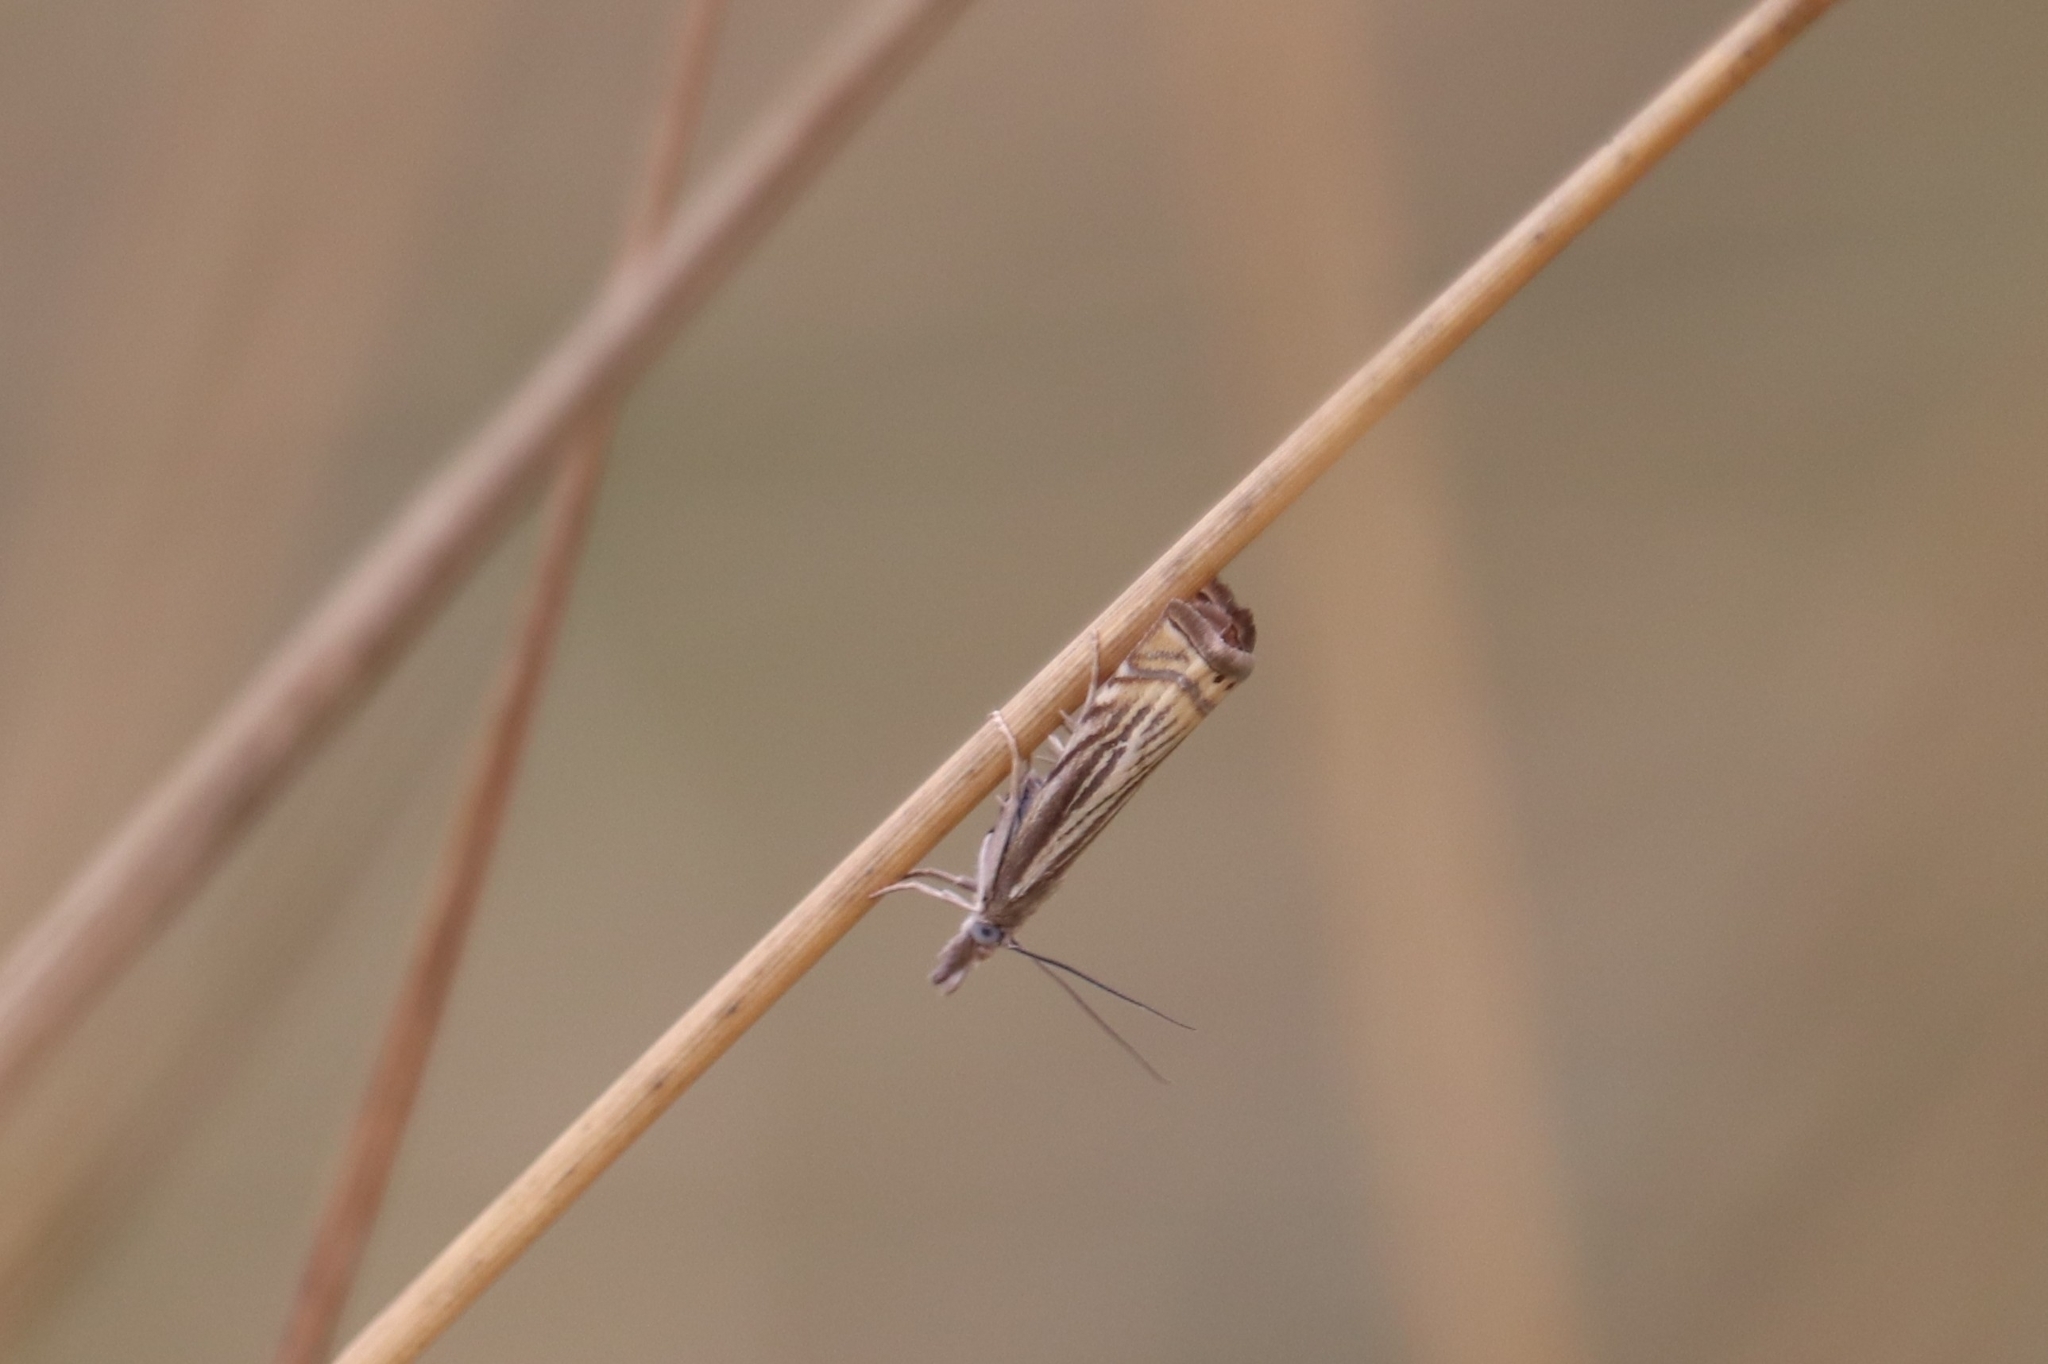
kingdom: Animalia
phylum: Arthropoda
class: Insecta
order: Lepidoptera
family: Crambidae
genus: Chrysoteuchia
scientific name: Chrysoteuchia topiarius
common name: Topiary grass-veneer
